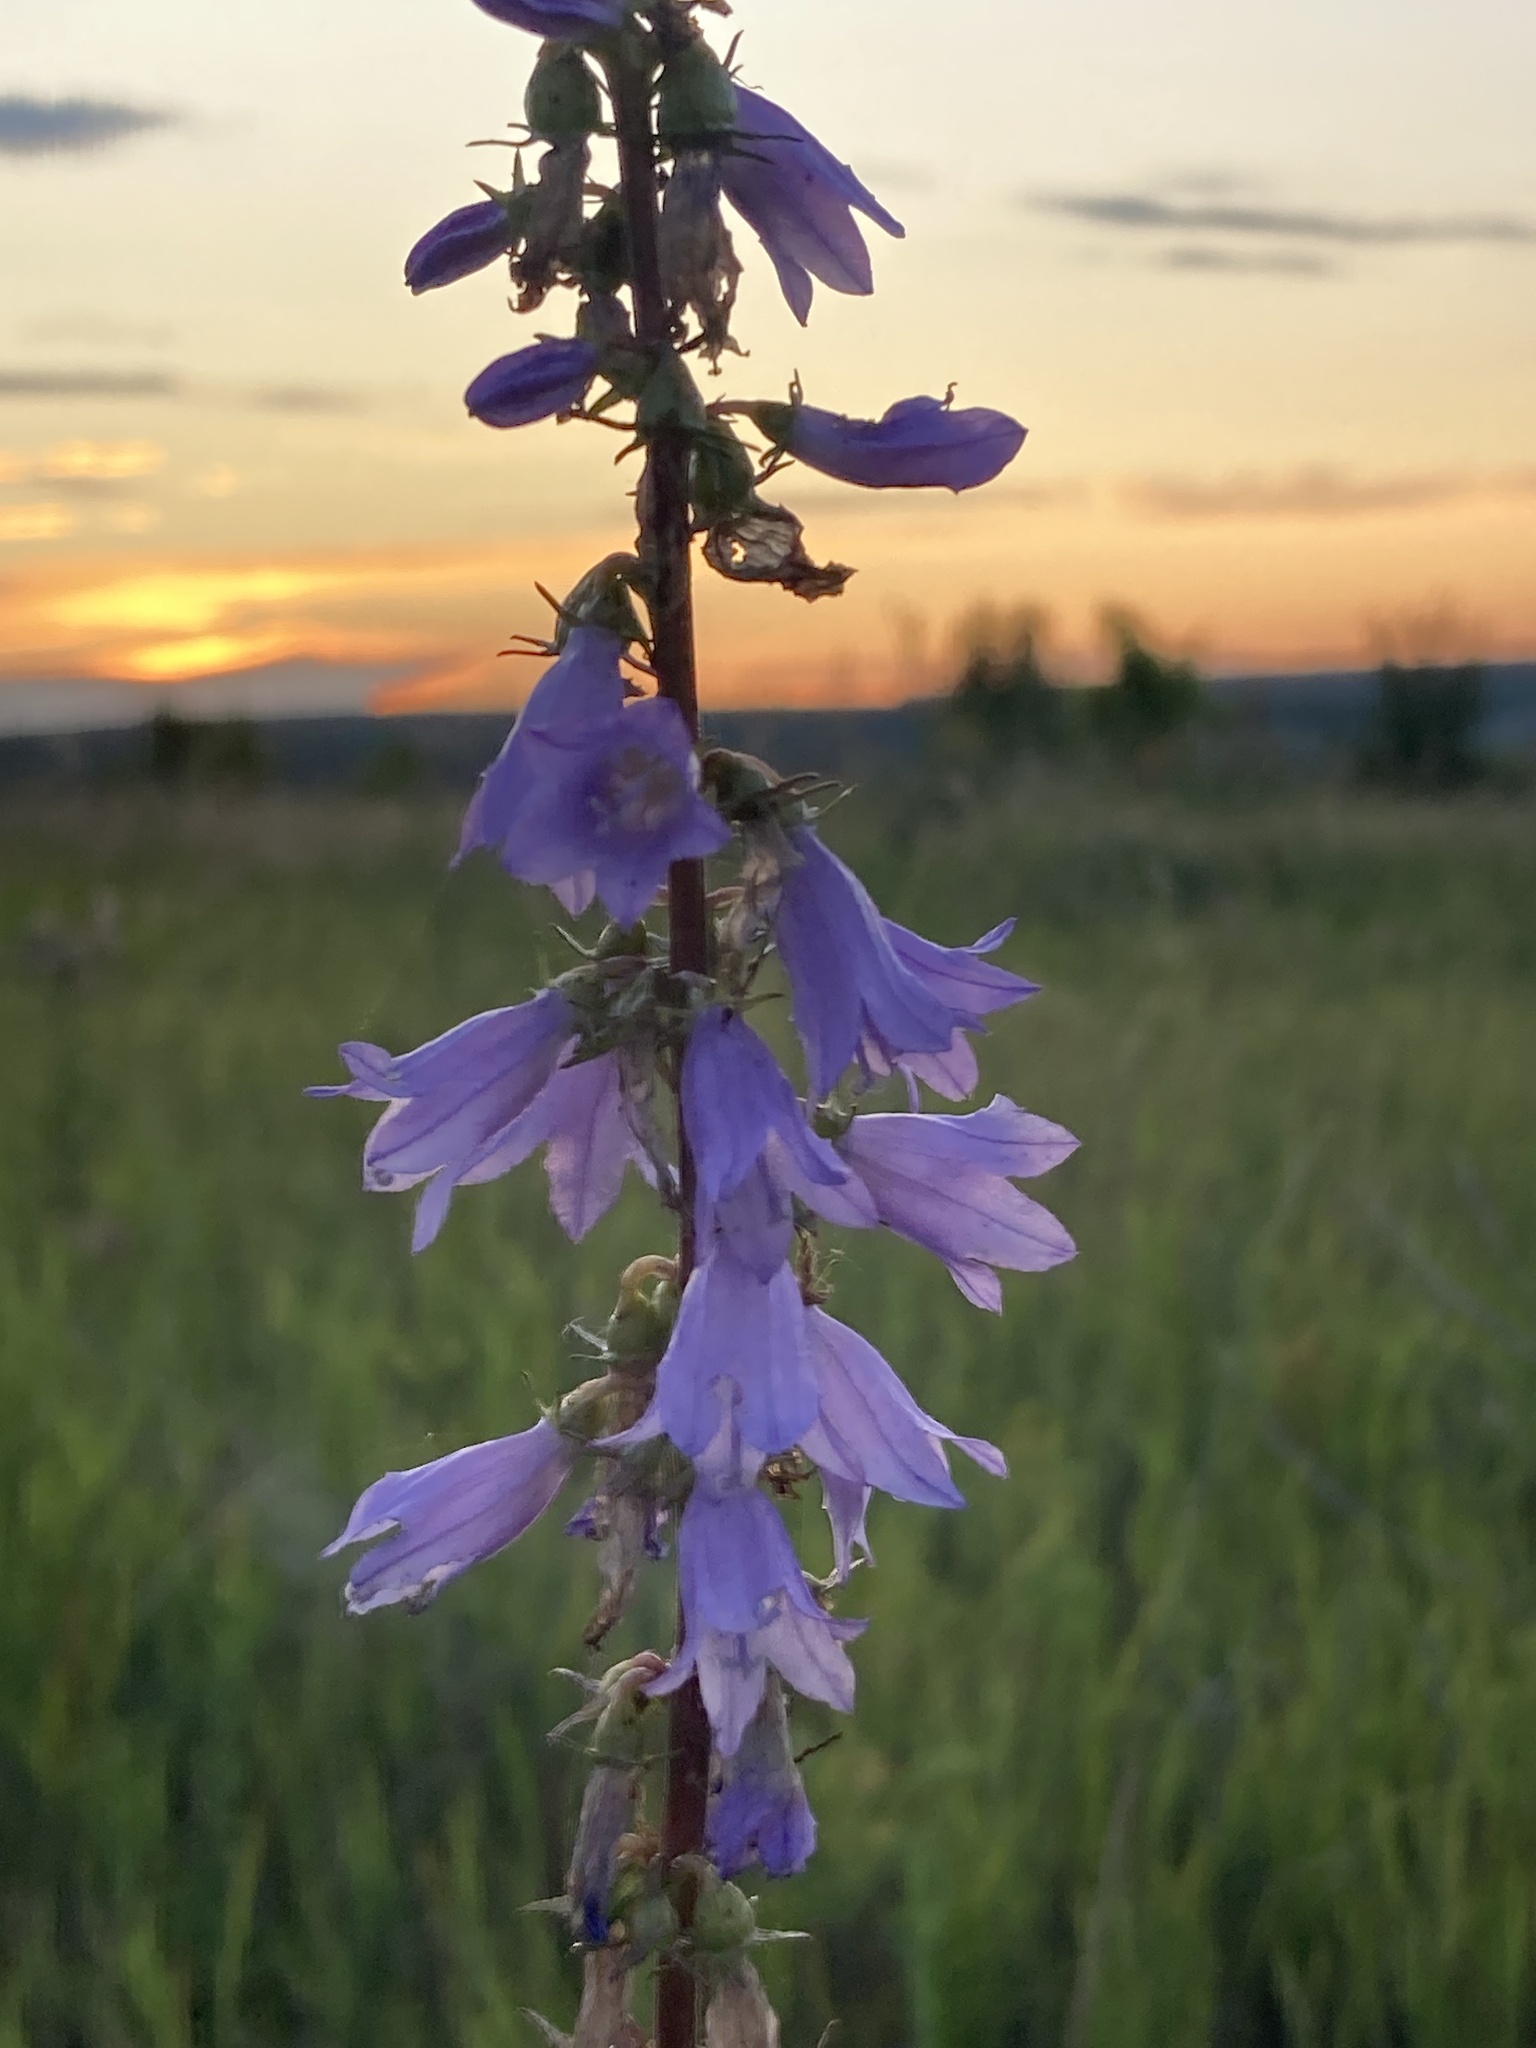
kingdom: Plantae
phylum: Tracheophyta
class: Magnoliopsida
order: Asterales
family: Campanulaceae
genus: Campanula
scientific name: Campanula bononiensis
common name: Pale bellflower
